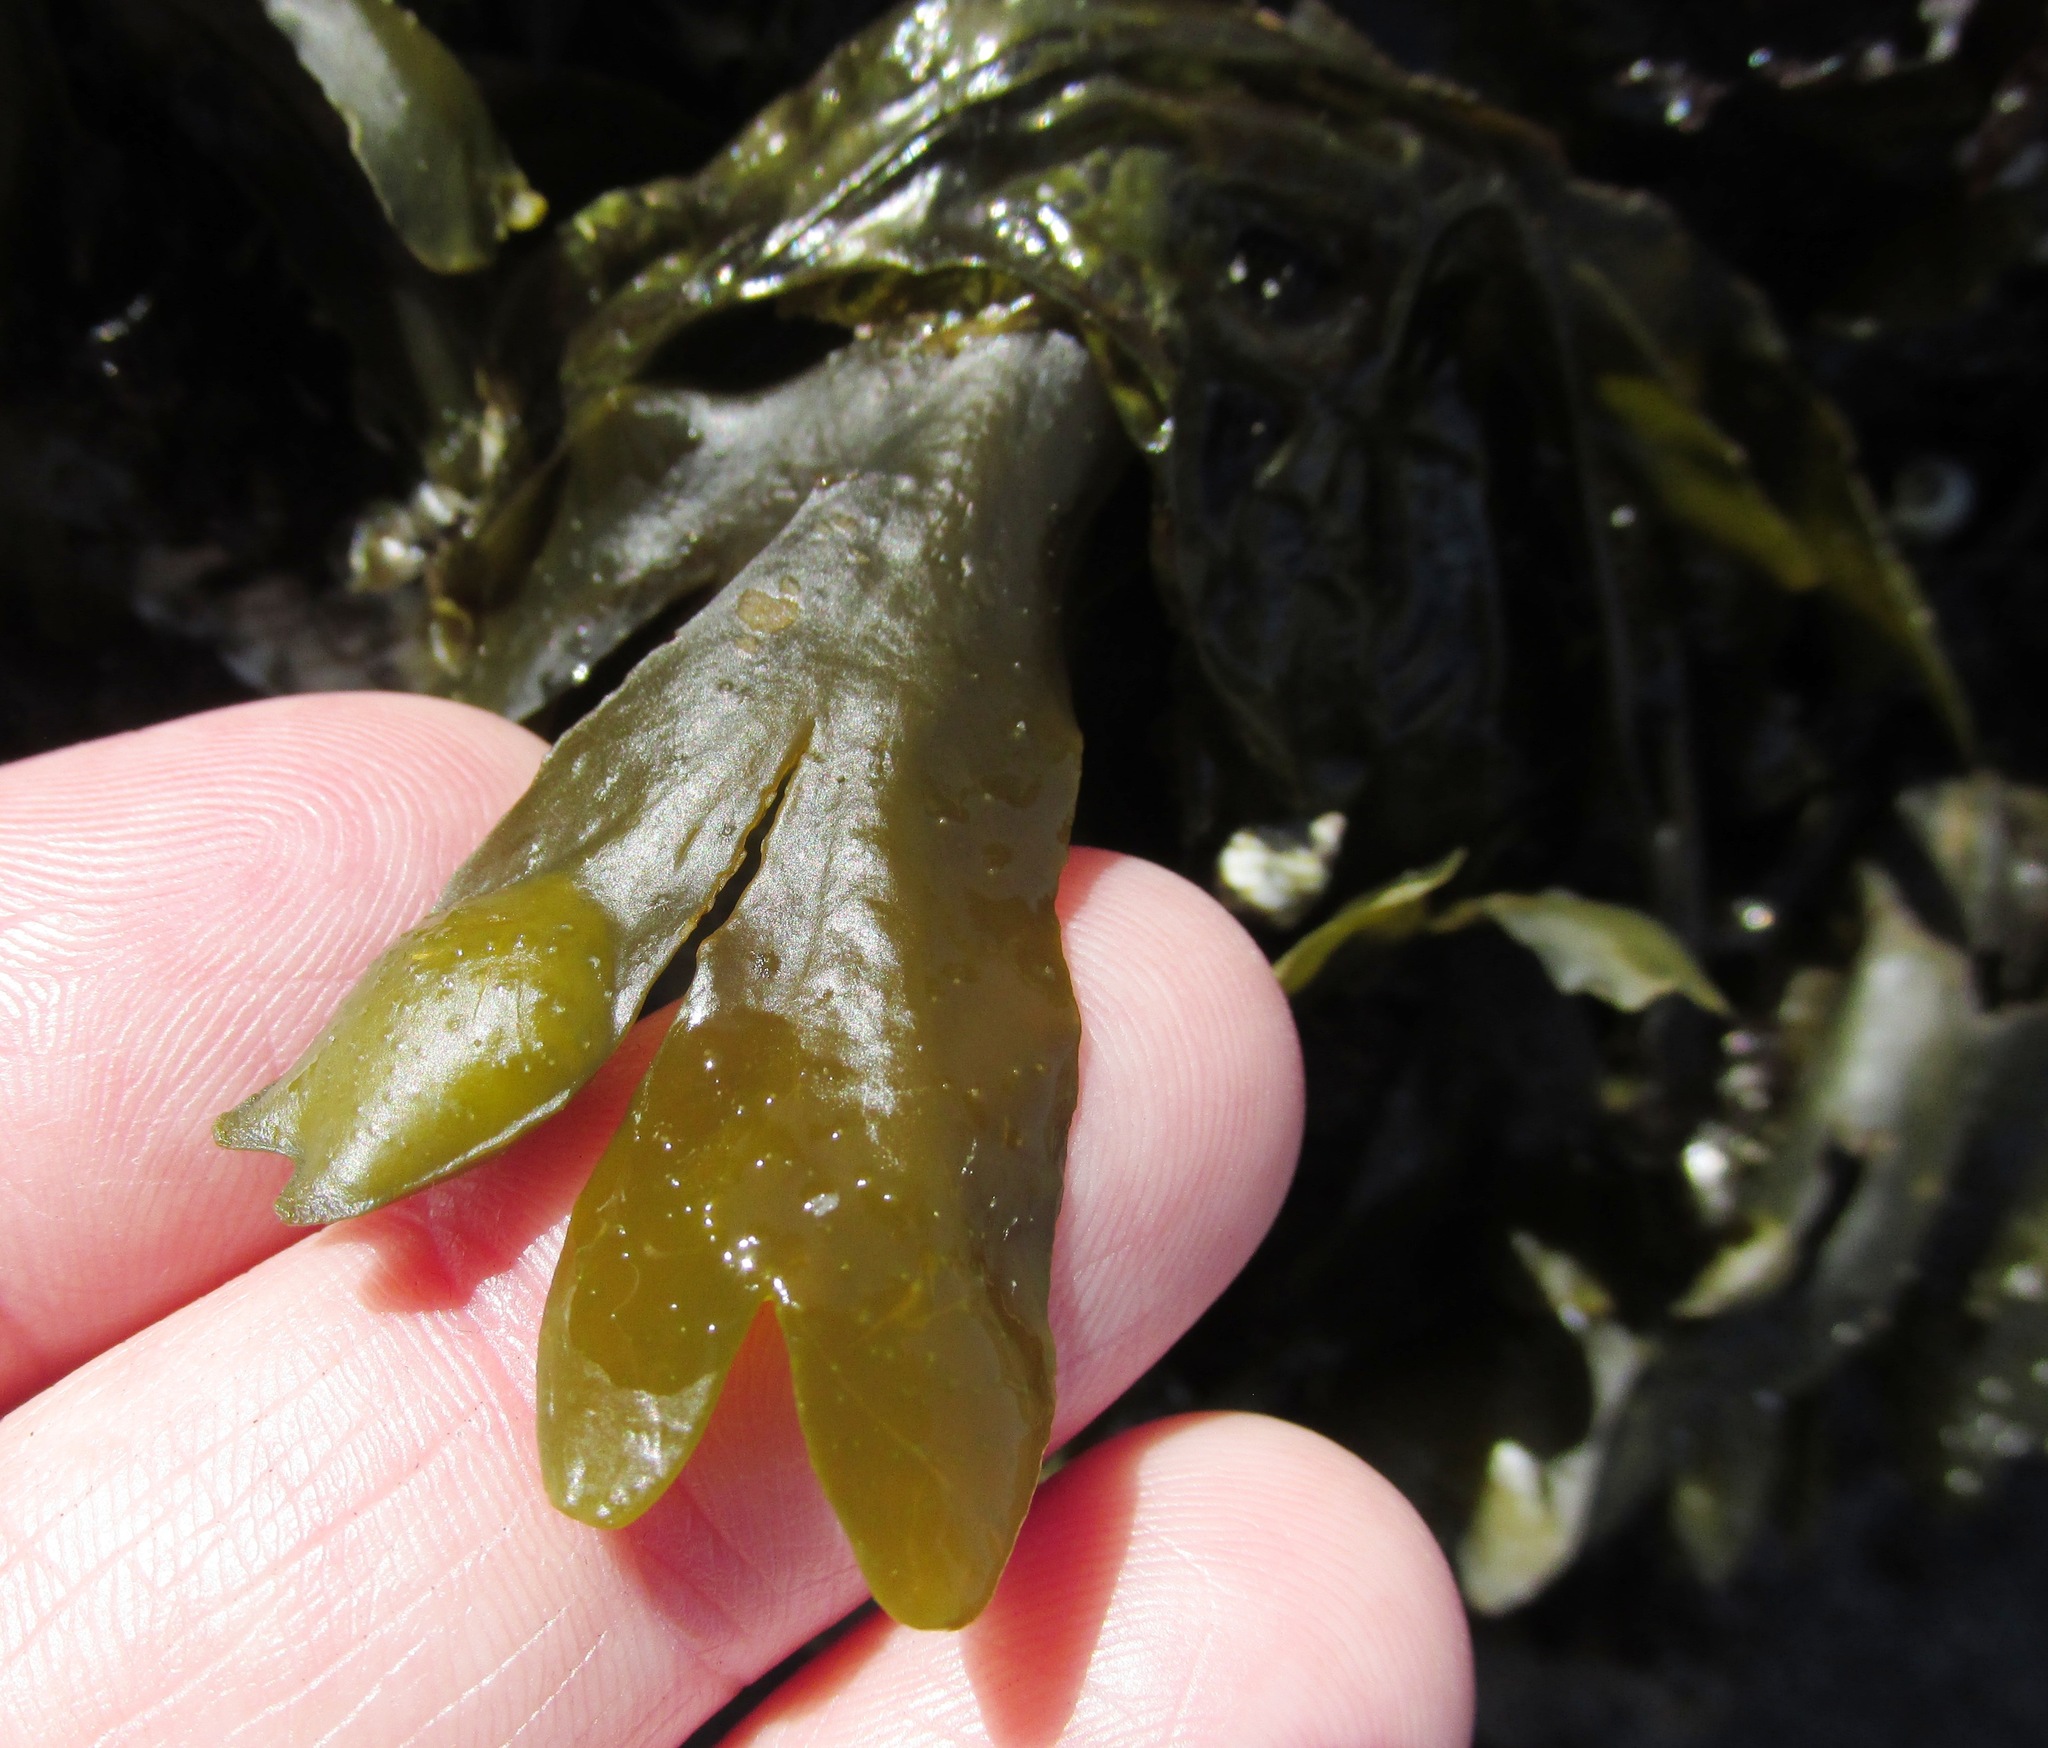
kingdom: Chromista
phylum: Ochrophyta
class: Phaeophyceae
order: Fucales
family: Fucaceae
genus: Fucus
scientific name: Fucus distichus
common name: Rockweed
